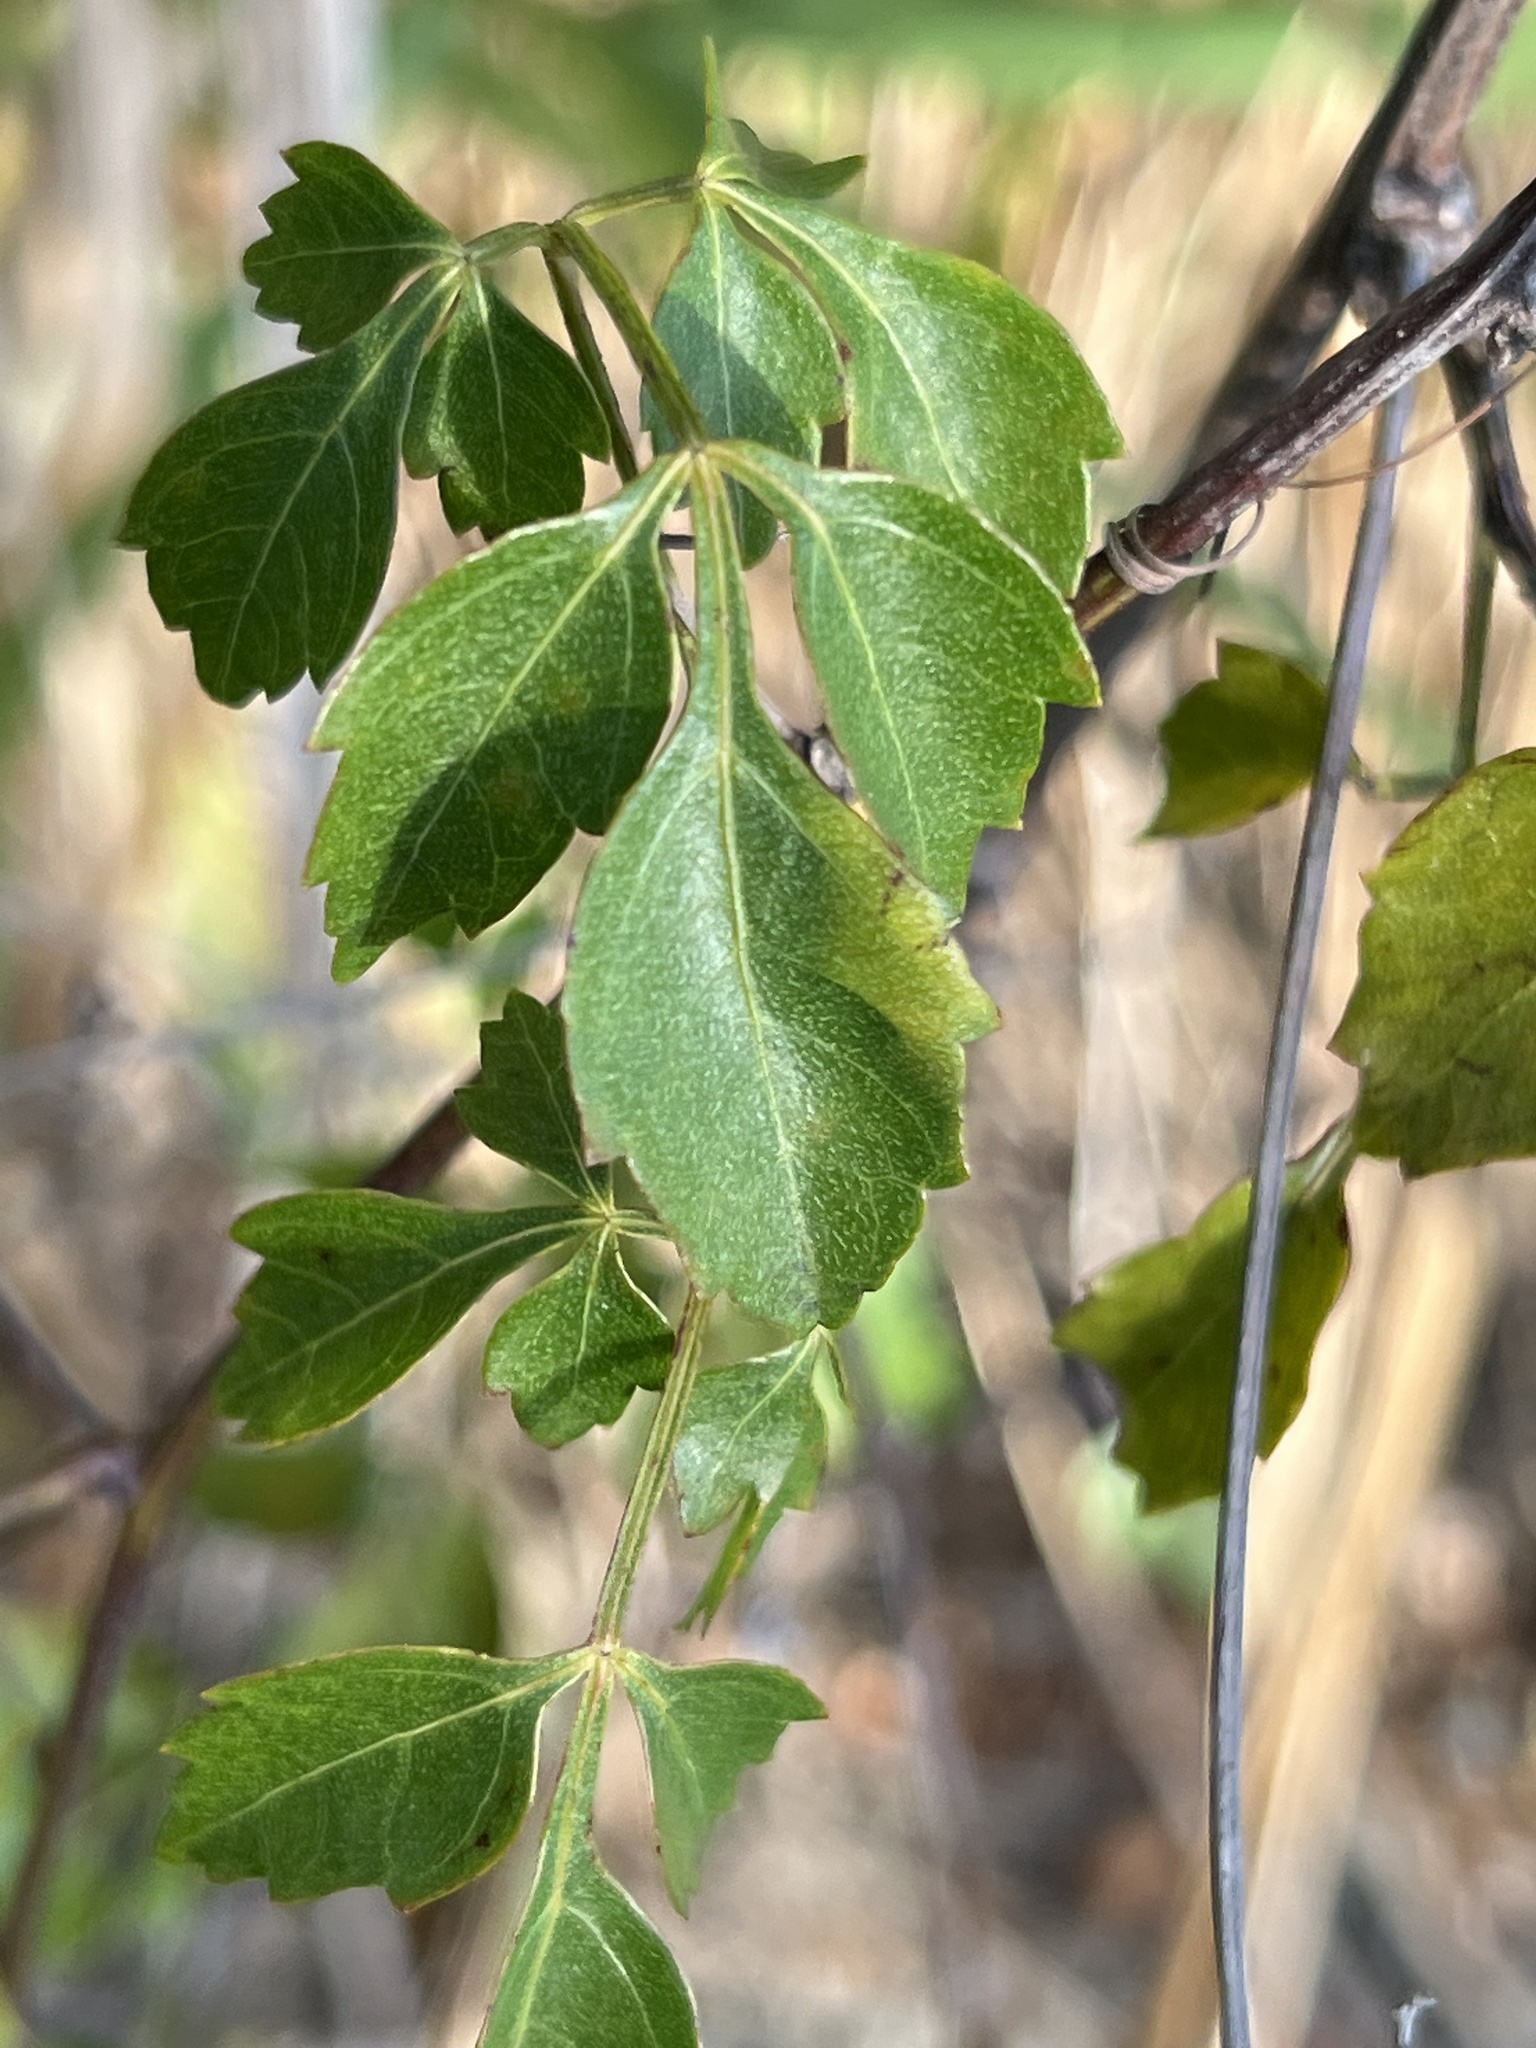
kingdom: Plantae
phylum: Tracheophyta
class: Magnoliopsida
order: Sapindales
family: Sapindaceae
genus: Serjania
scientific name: Serjania lucida
